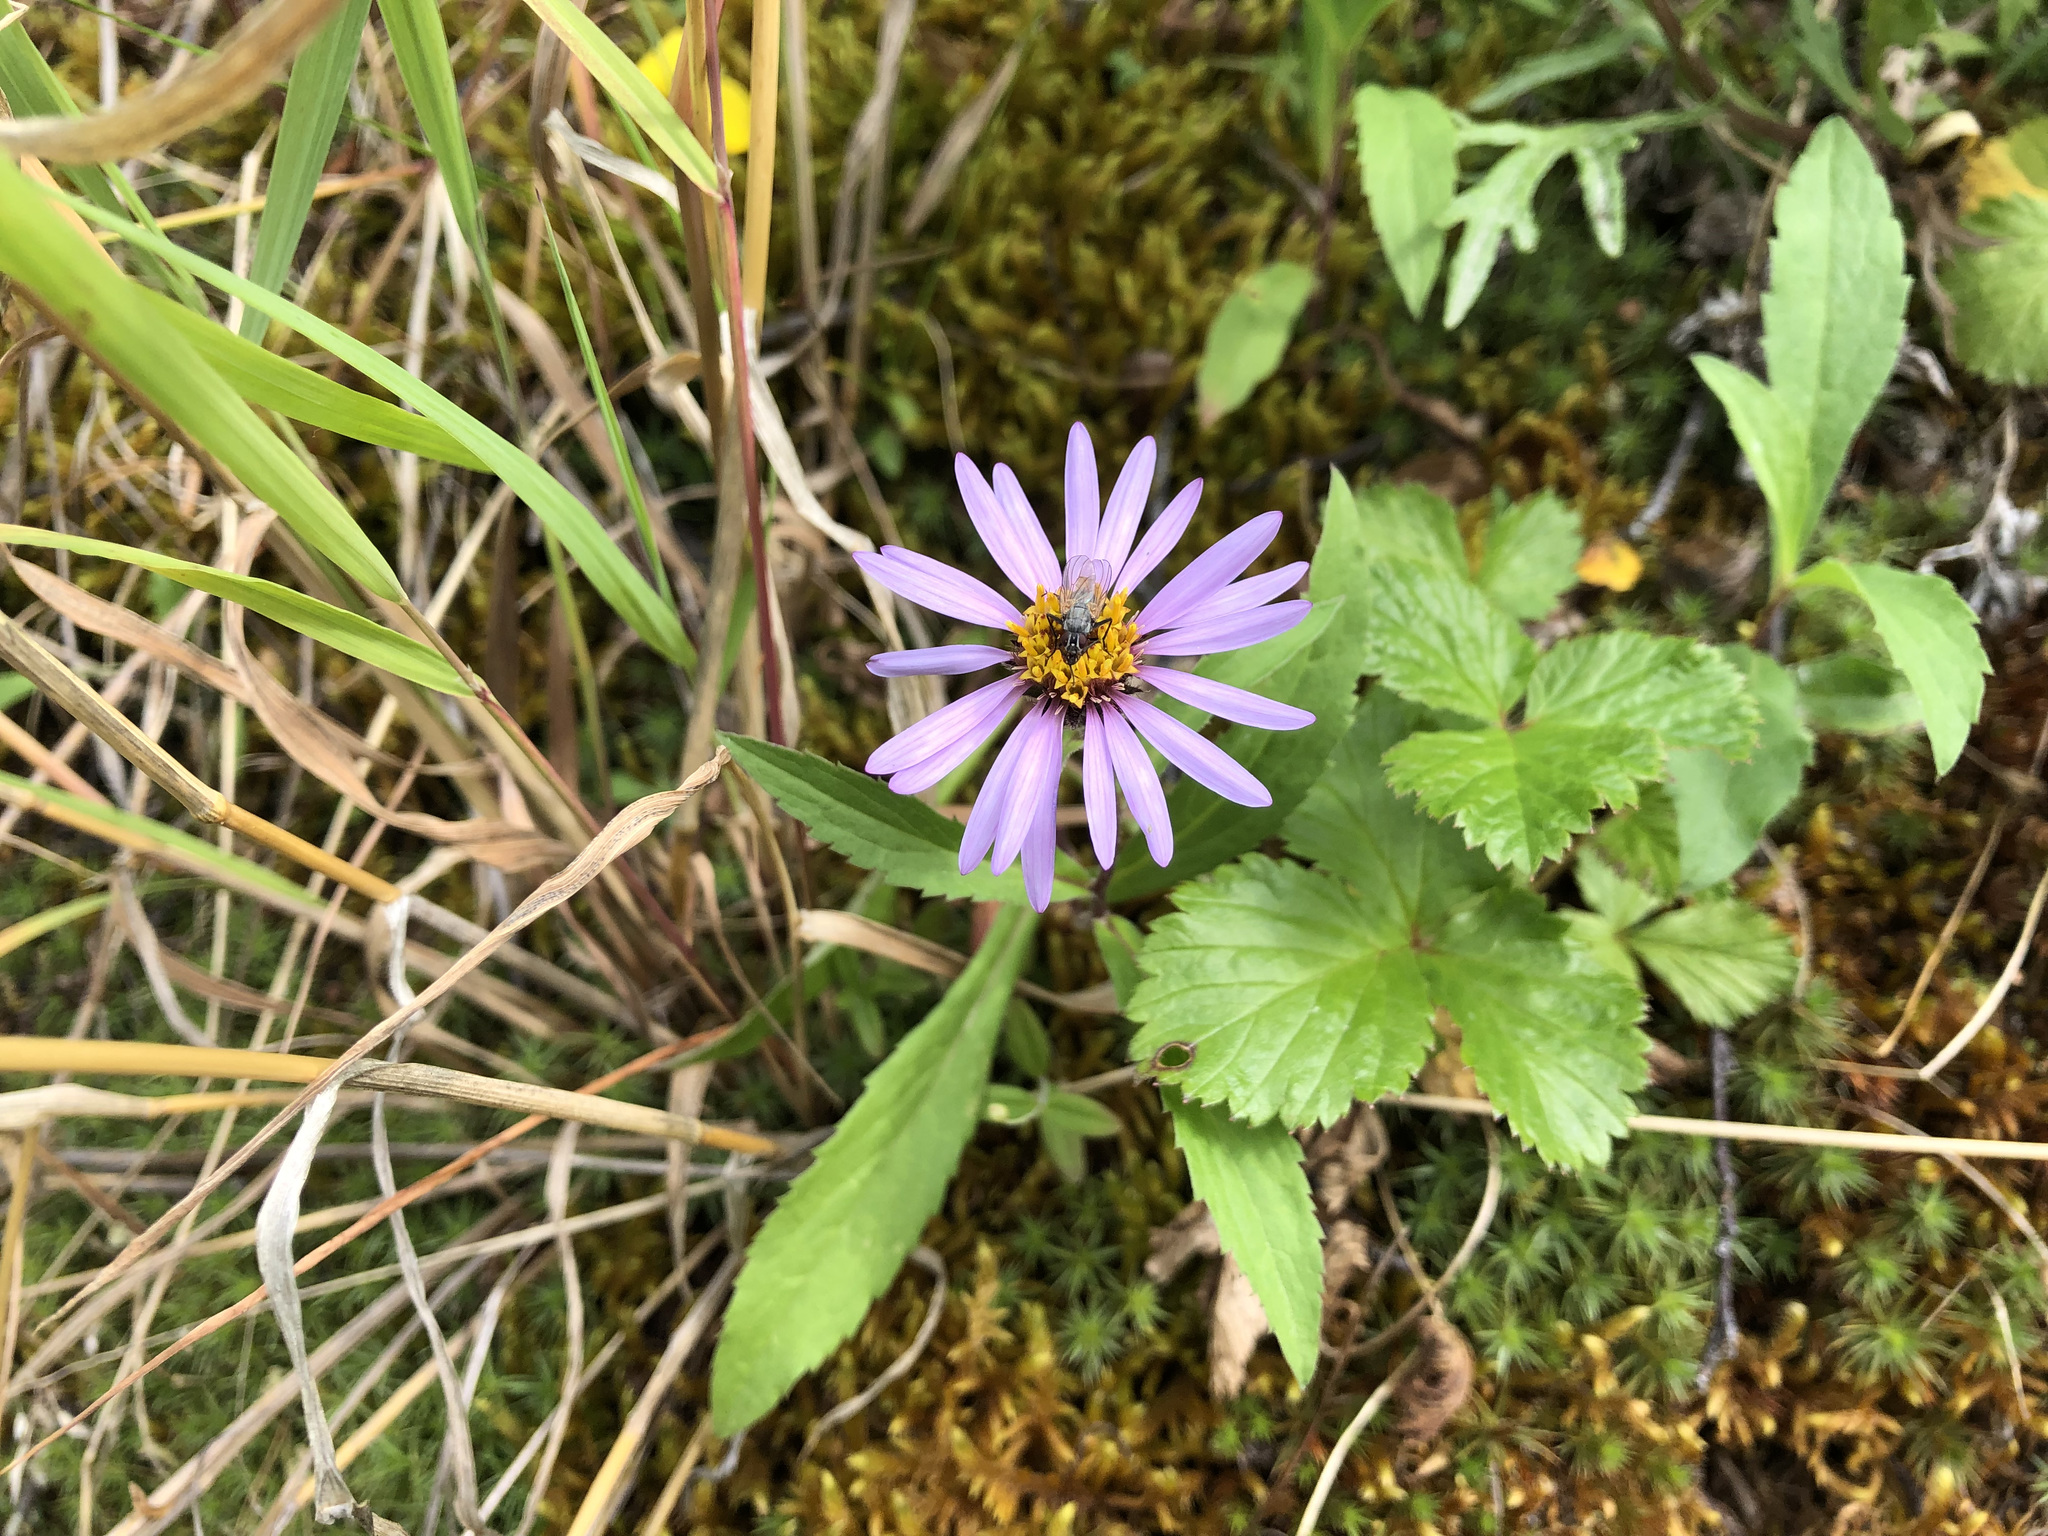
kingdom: Plantae
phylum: Tracheophyta
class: Magnoliopsida
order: Asterales
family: Asteraceae
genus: Eurybia
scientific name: Eurybia sibirica
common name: Arctic aster
